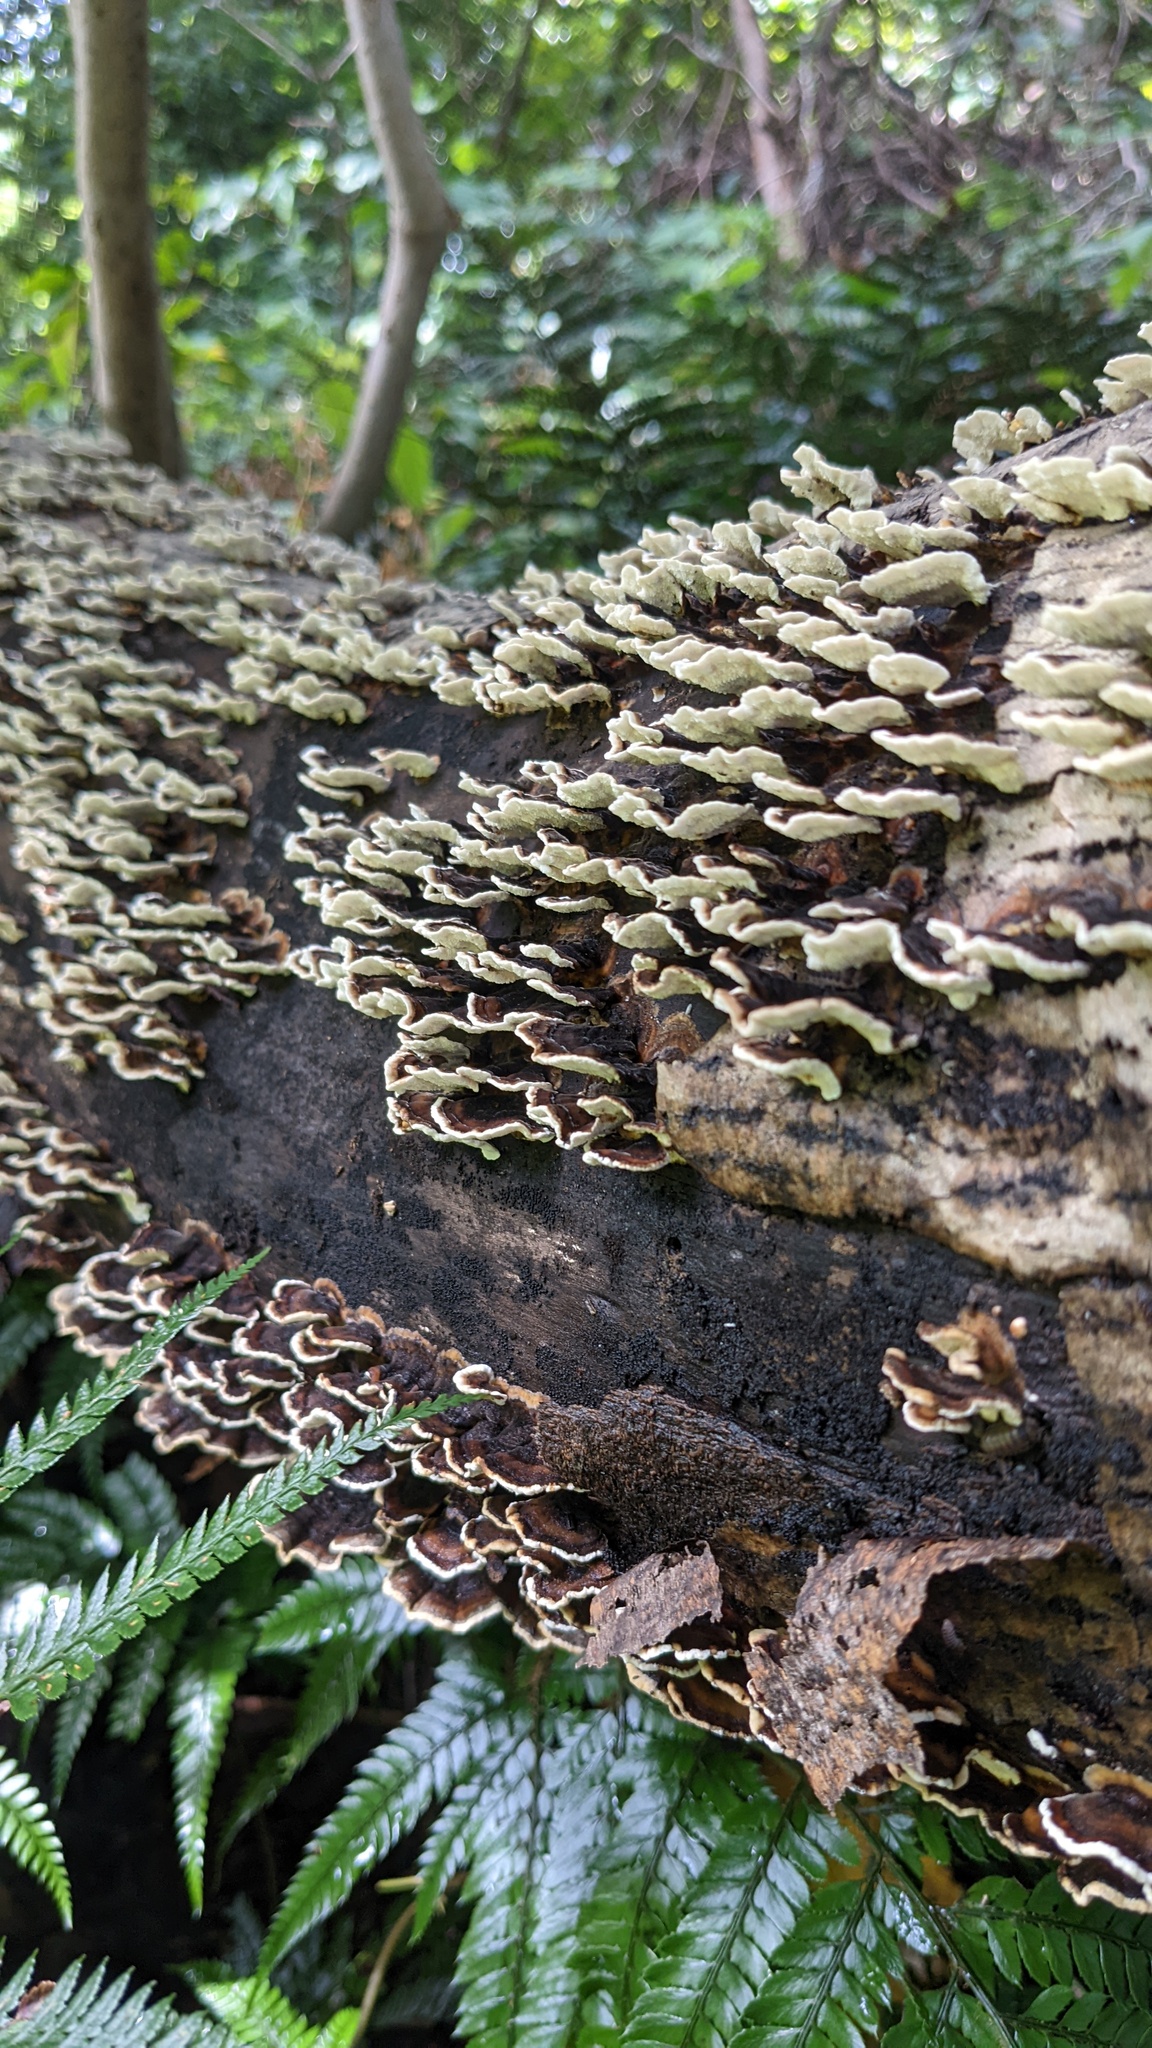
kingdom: Fungi
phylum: Basidiomycota
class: Agaricomycetes
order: Polyporales
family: Polyporaceae
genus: Trametes
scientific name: Trametes versicolor
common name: Turkeytail
